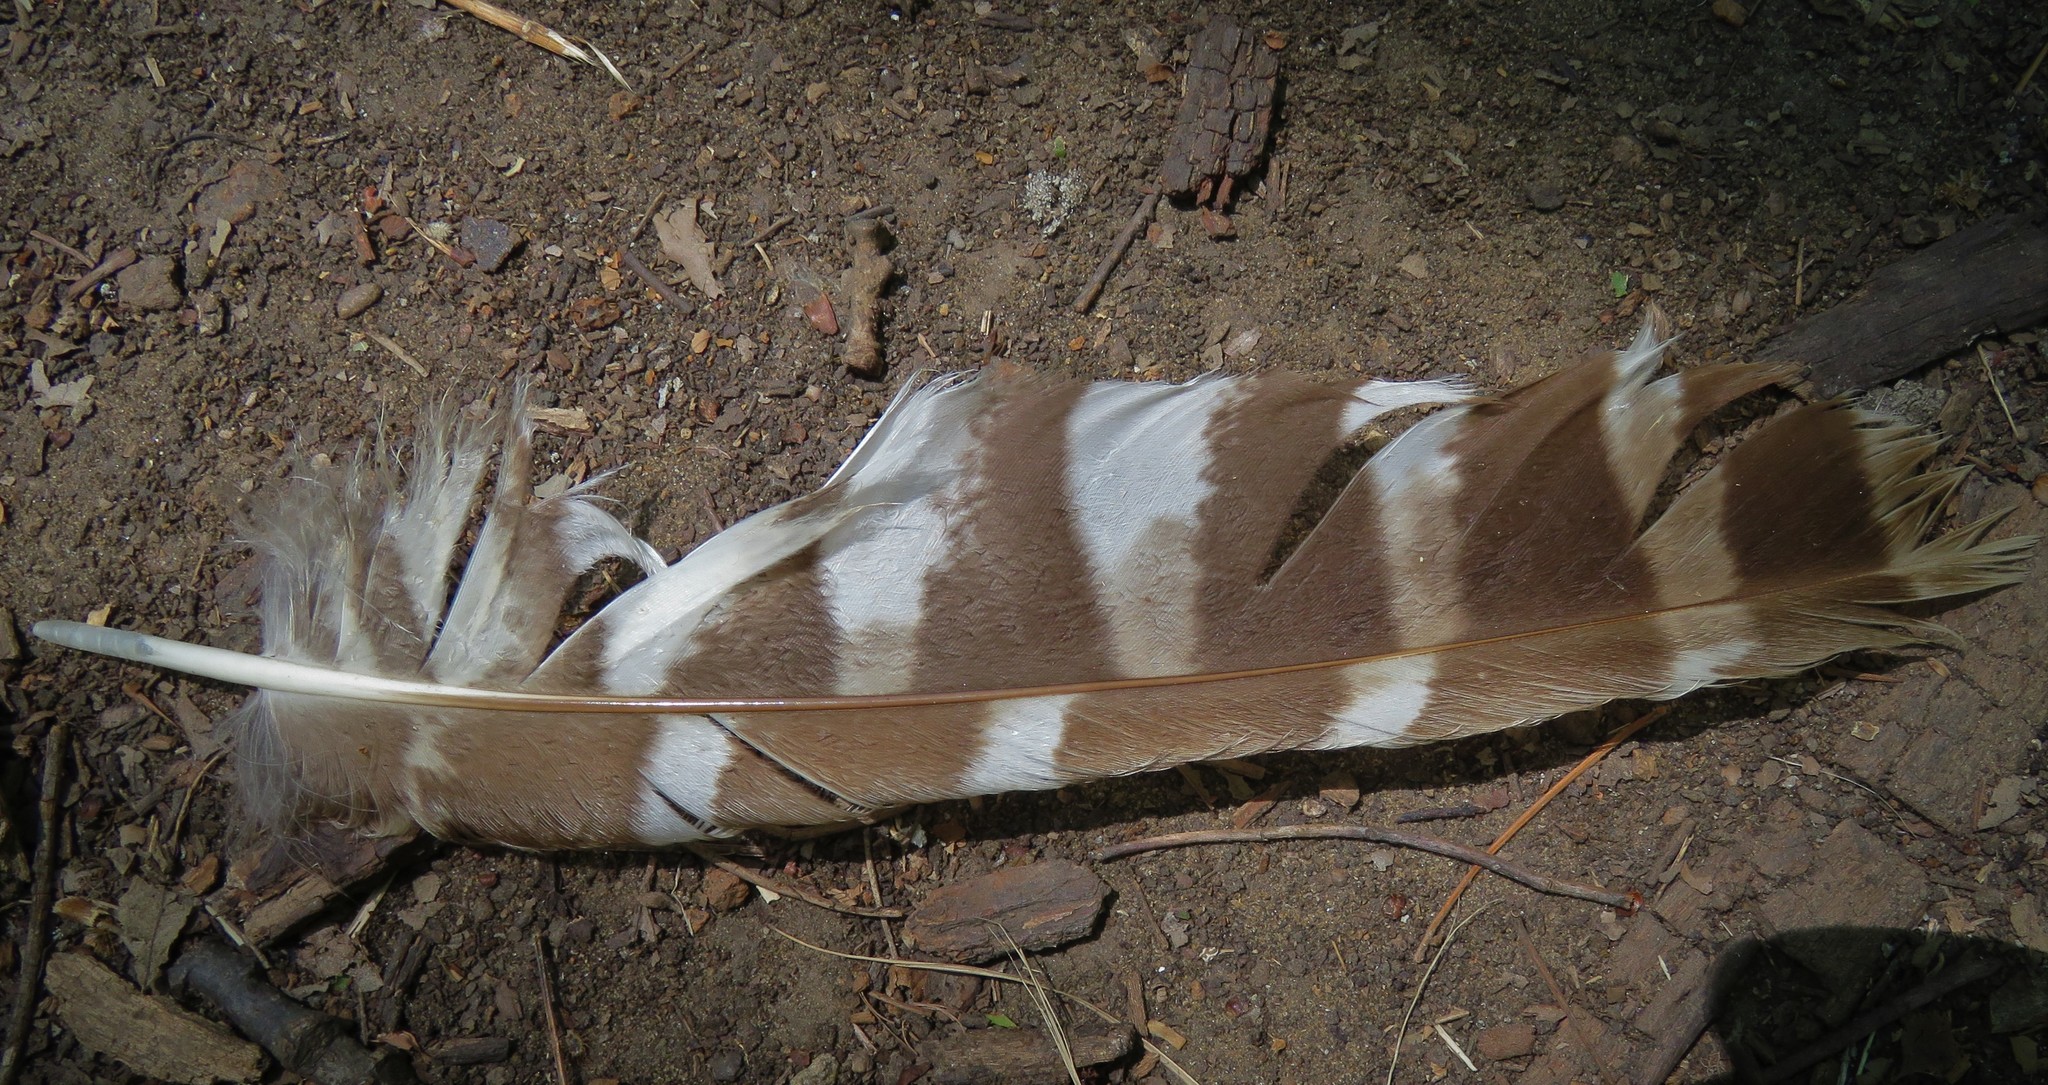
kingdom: Animalia
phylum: Chordata
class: Aves
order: Strigiformes
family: Strigidae
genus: Strix
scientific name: Strix varia
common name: Barred owl
